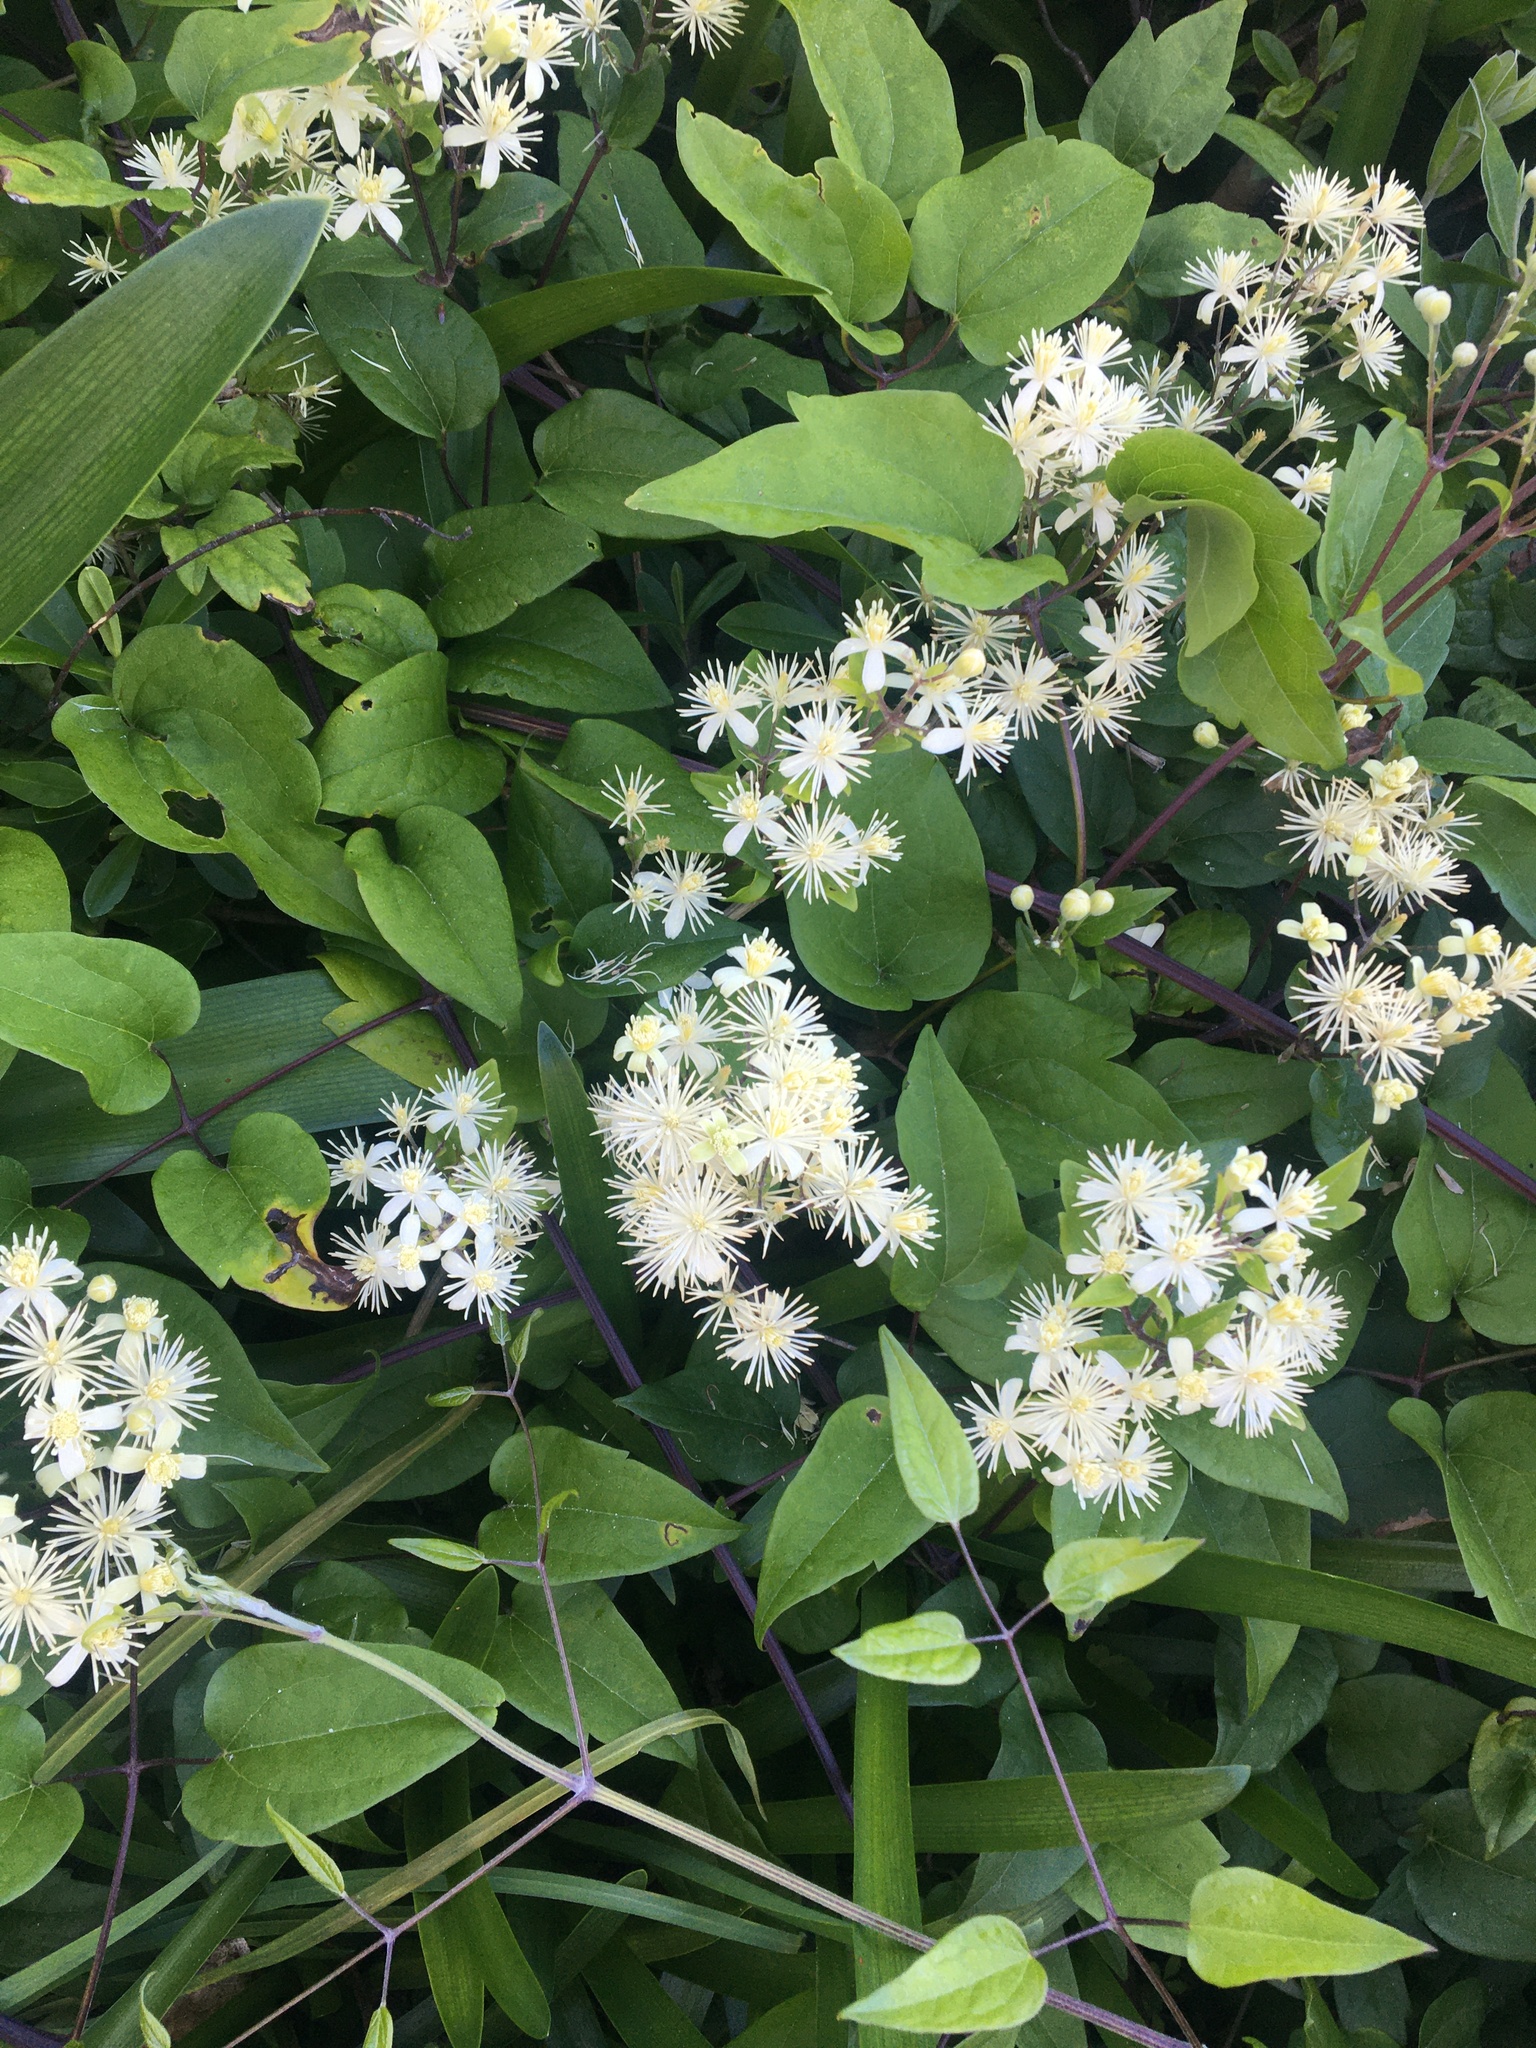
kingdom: Plantae
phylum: Tracheophyta
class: Magnoliopsida
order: Ranunculales
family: Ranunculaceae
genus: Clematis
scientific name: Clematis vitalba
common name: Evergreen clematis
